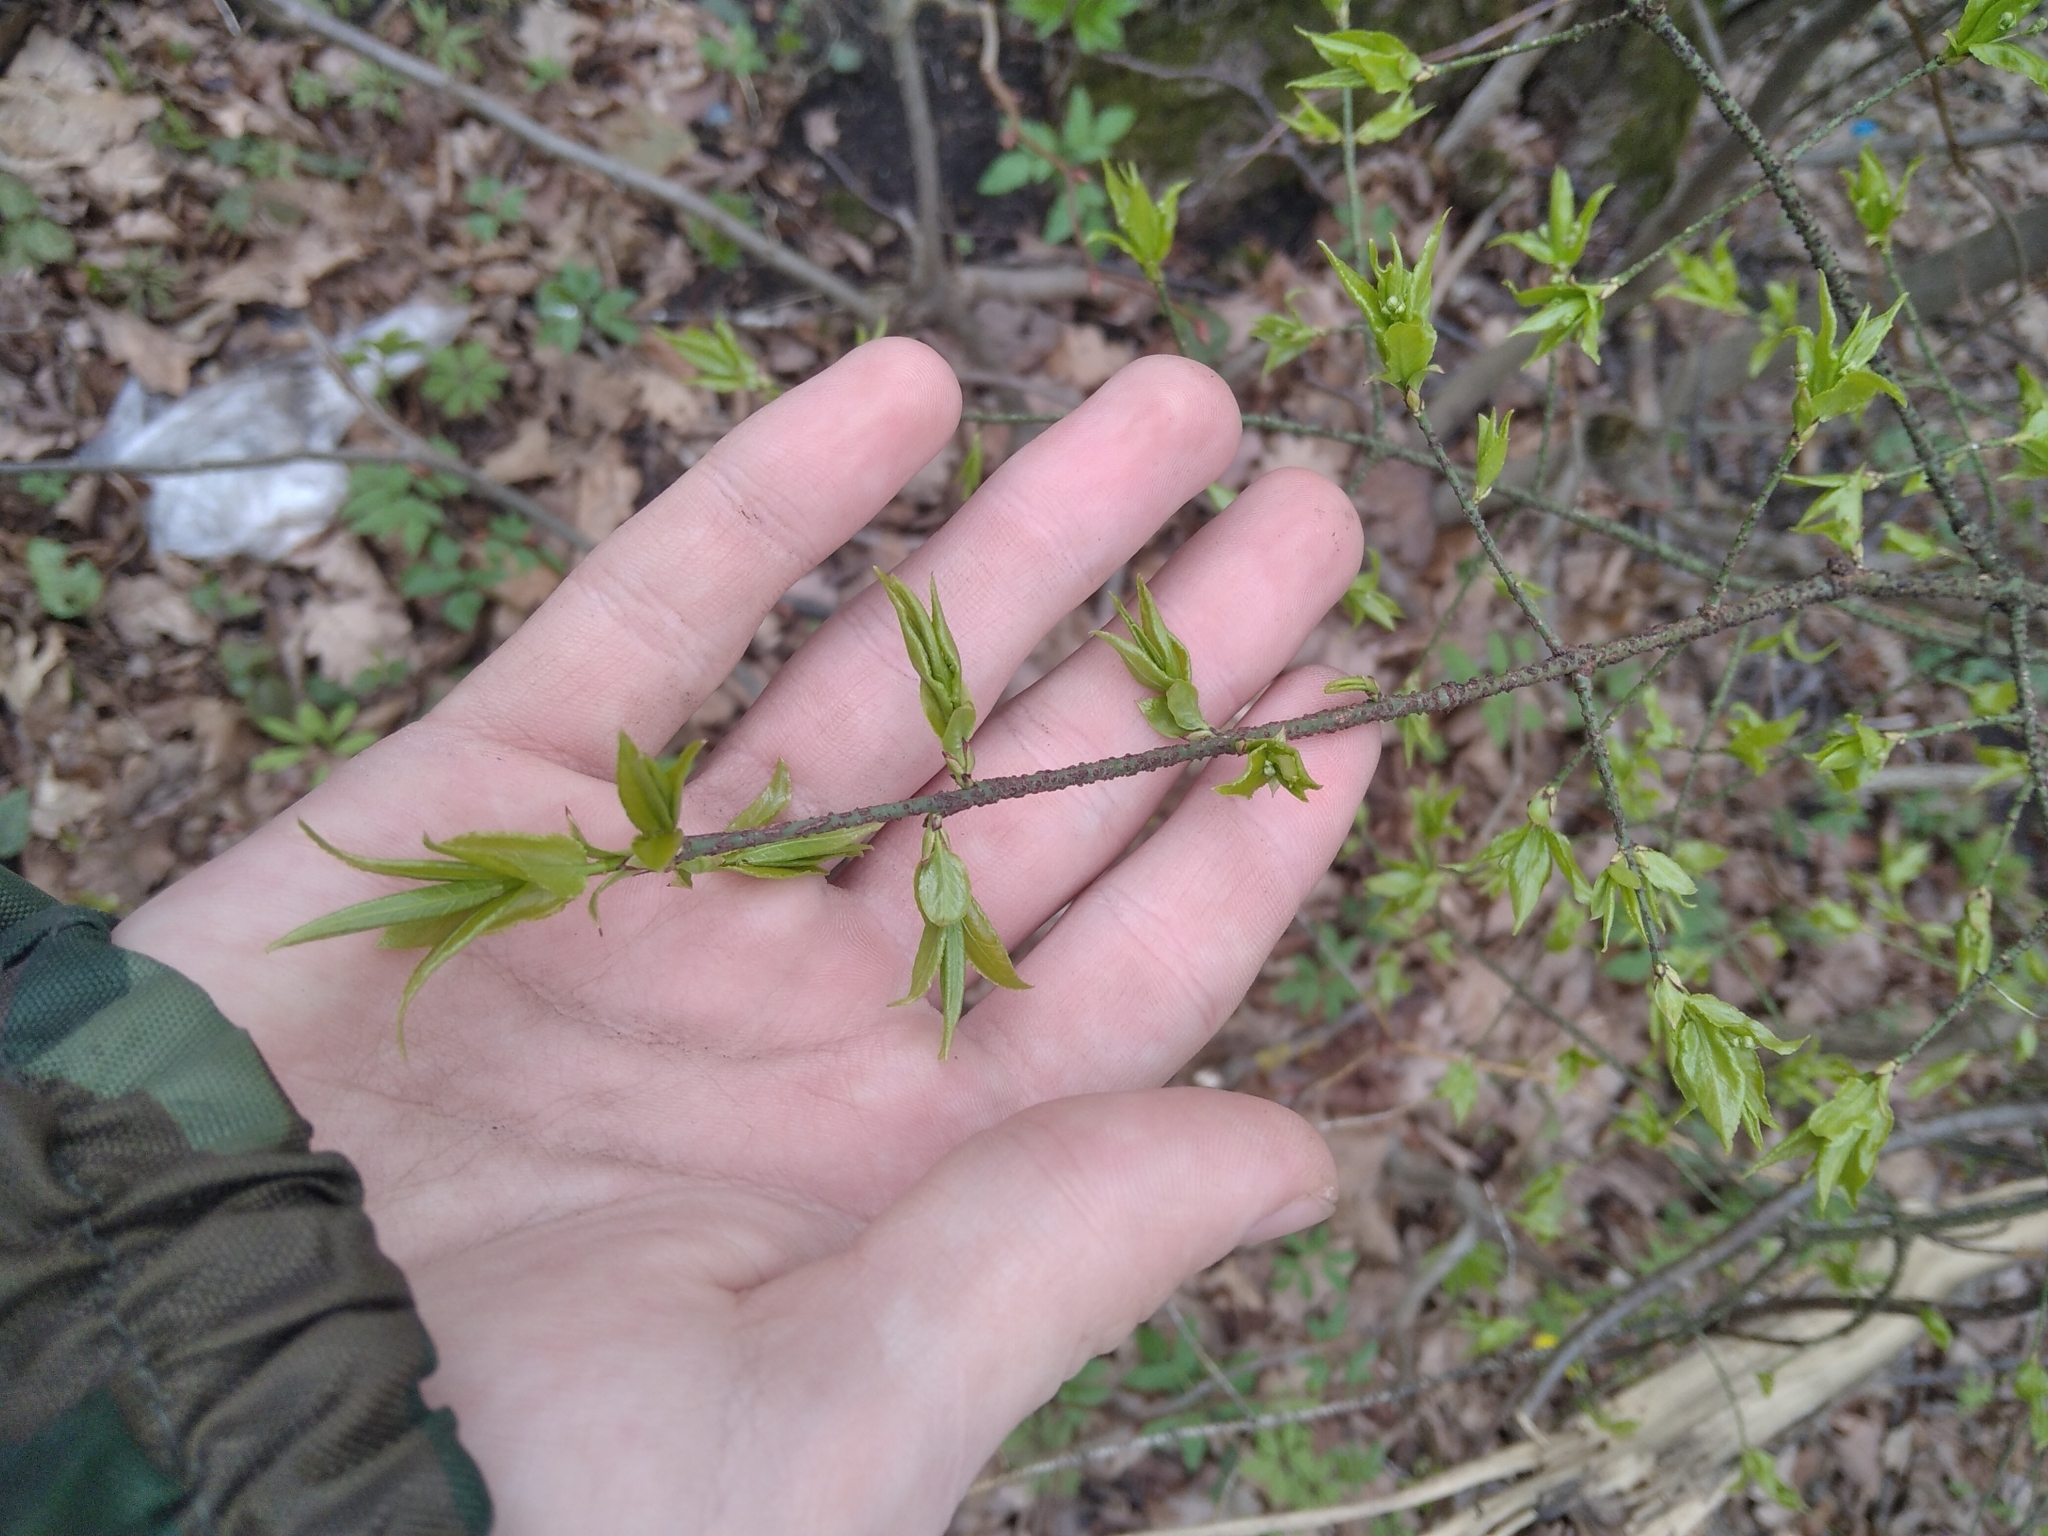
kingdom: Plantae
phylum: Tracheophyta
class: Magnoliopsida
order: Celastrales
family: Celastraceae
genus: Euonymus
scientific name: Euonymus verrucosus
